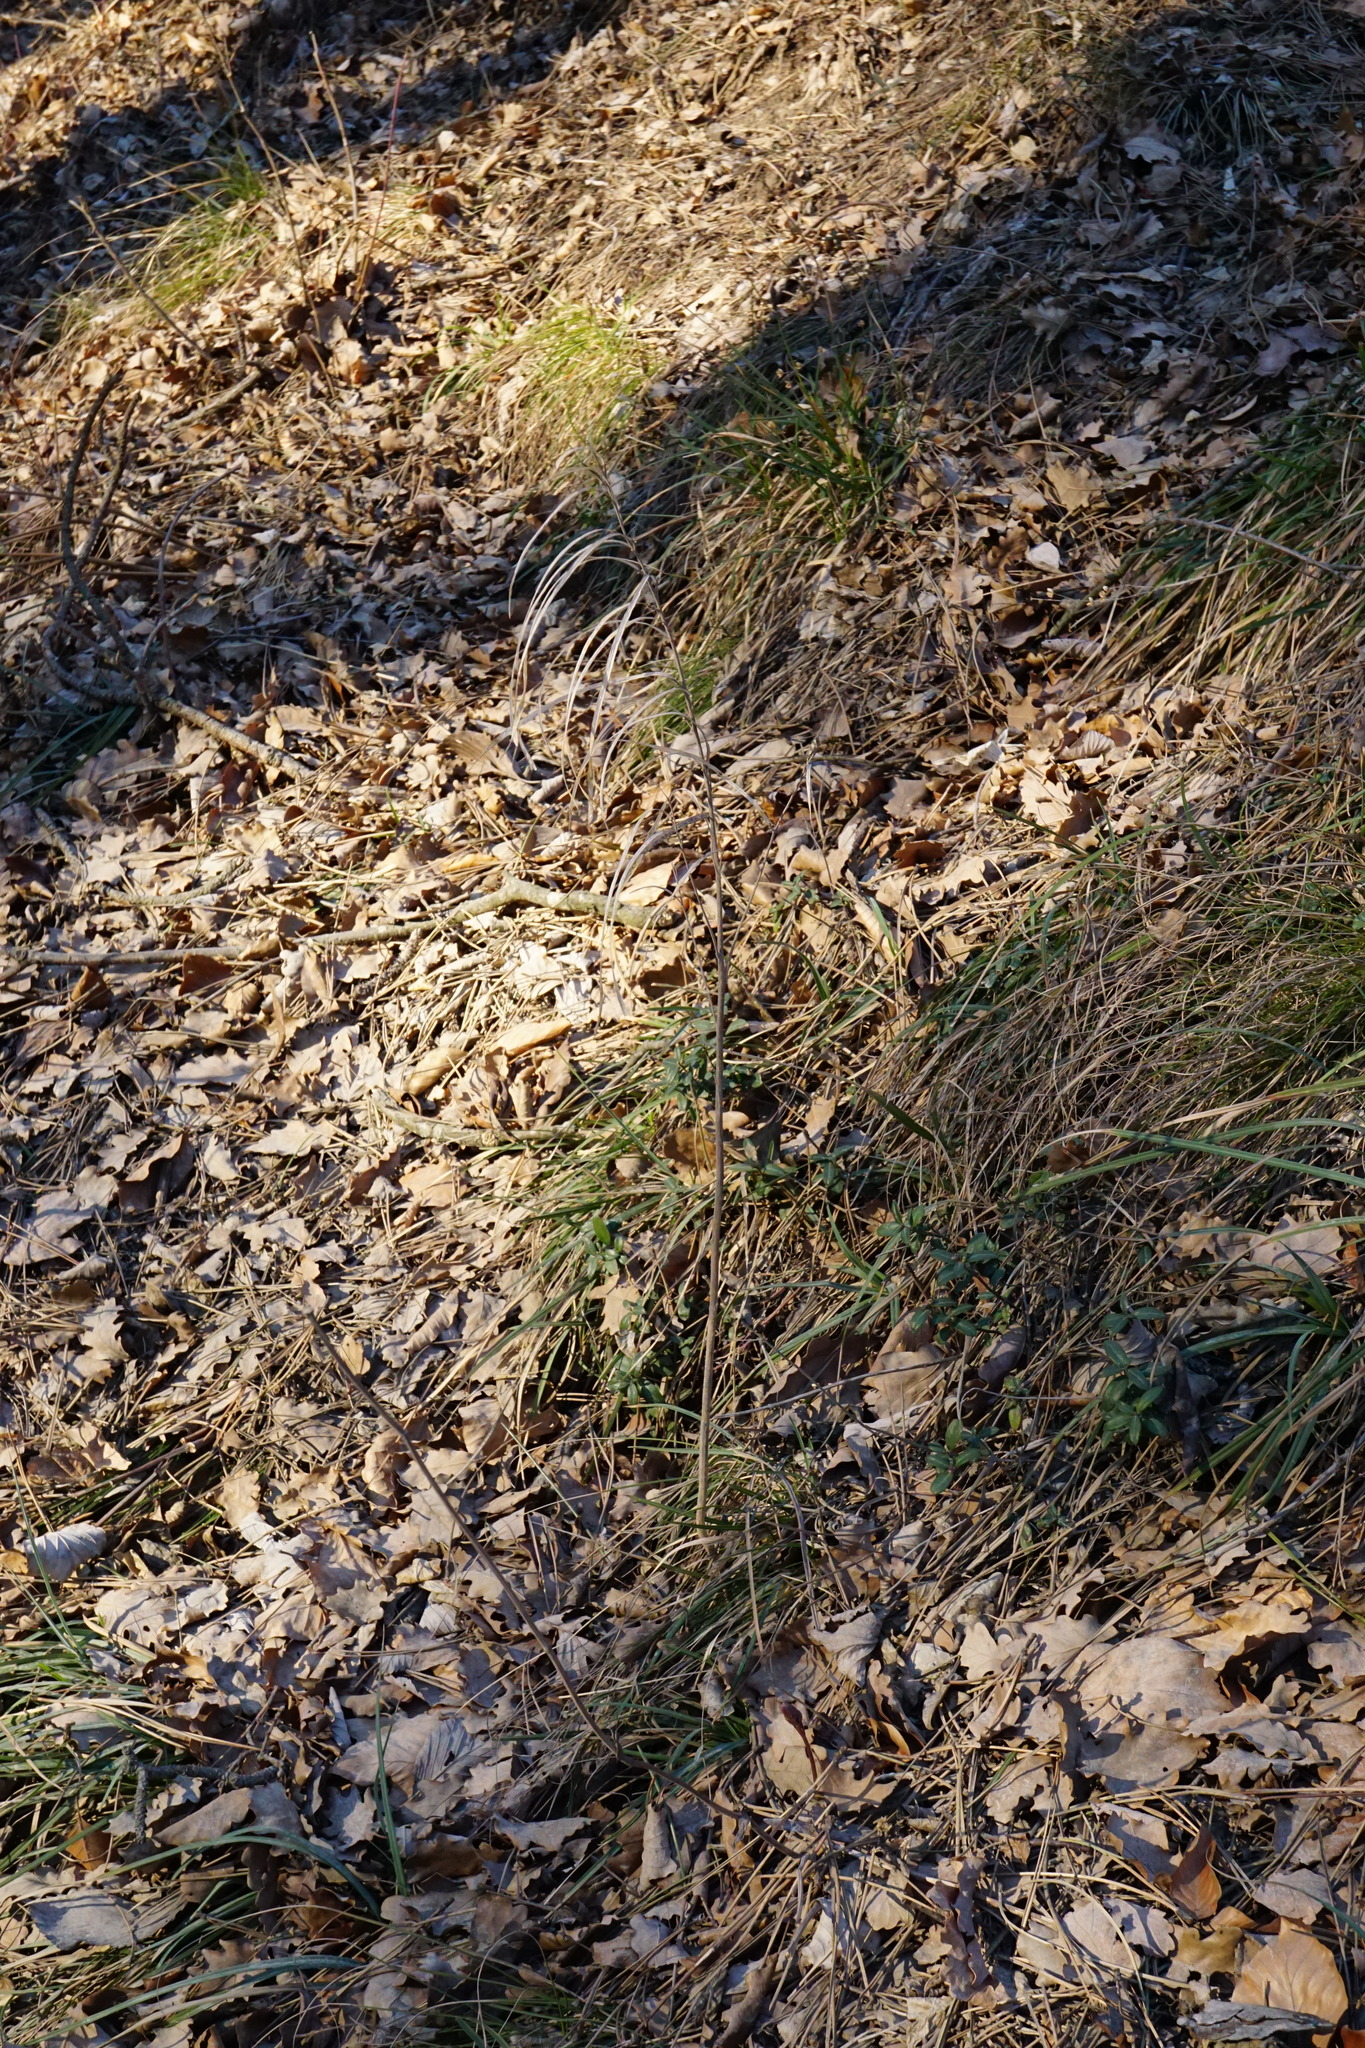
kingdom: Plantae
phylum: Tracheophyta
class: Magnoliopsida
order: Brassicales
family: Brassicaceae
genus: Pseudoturritis
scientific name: Pseudoturritis turrita
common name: Tower cress
